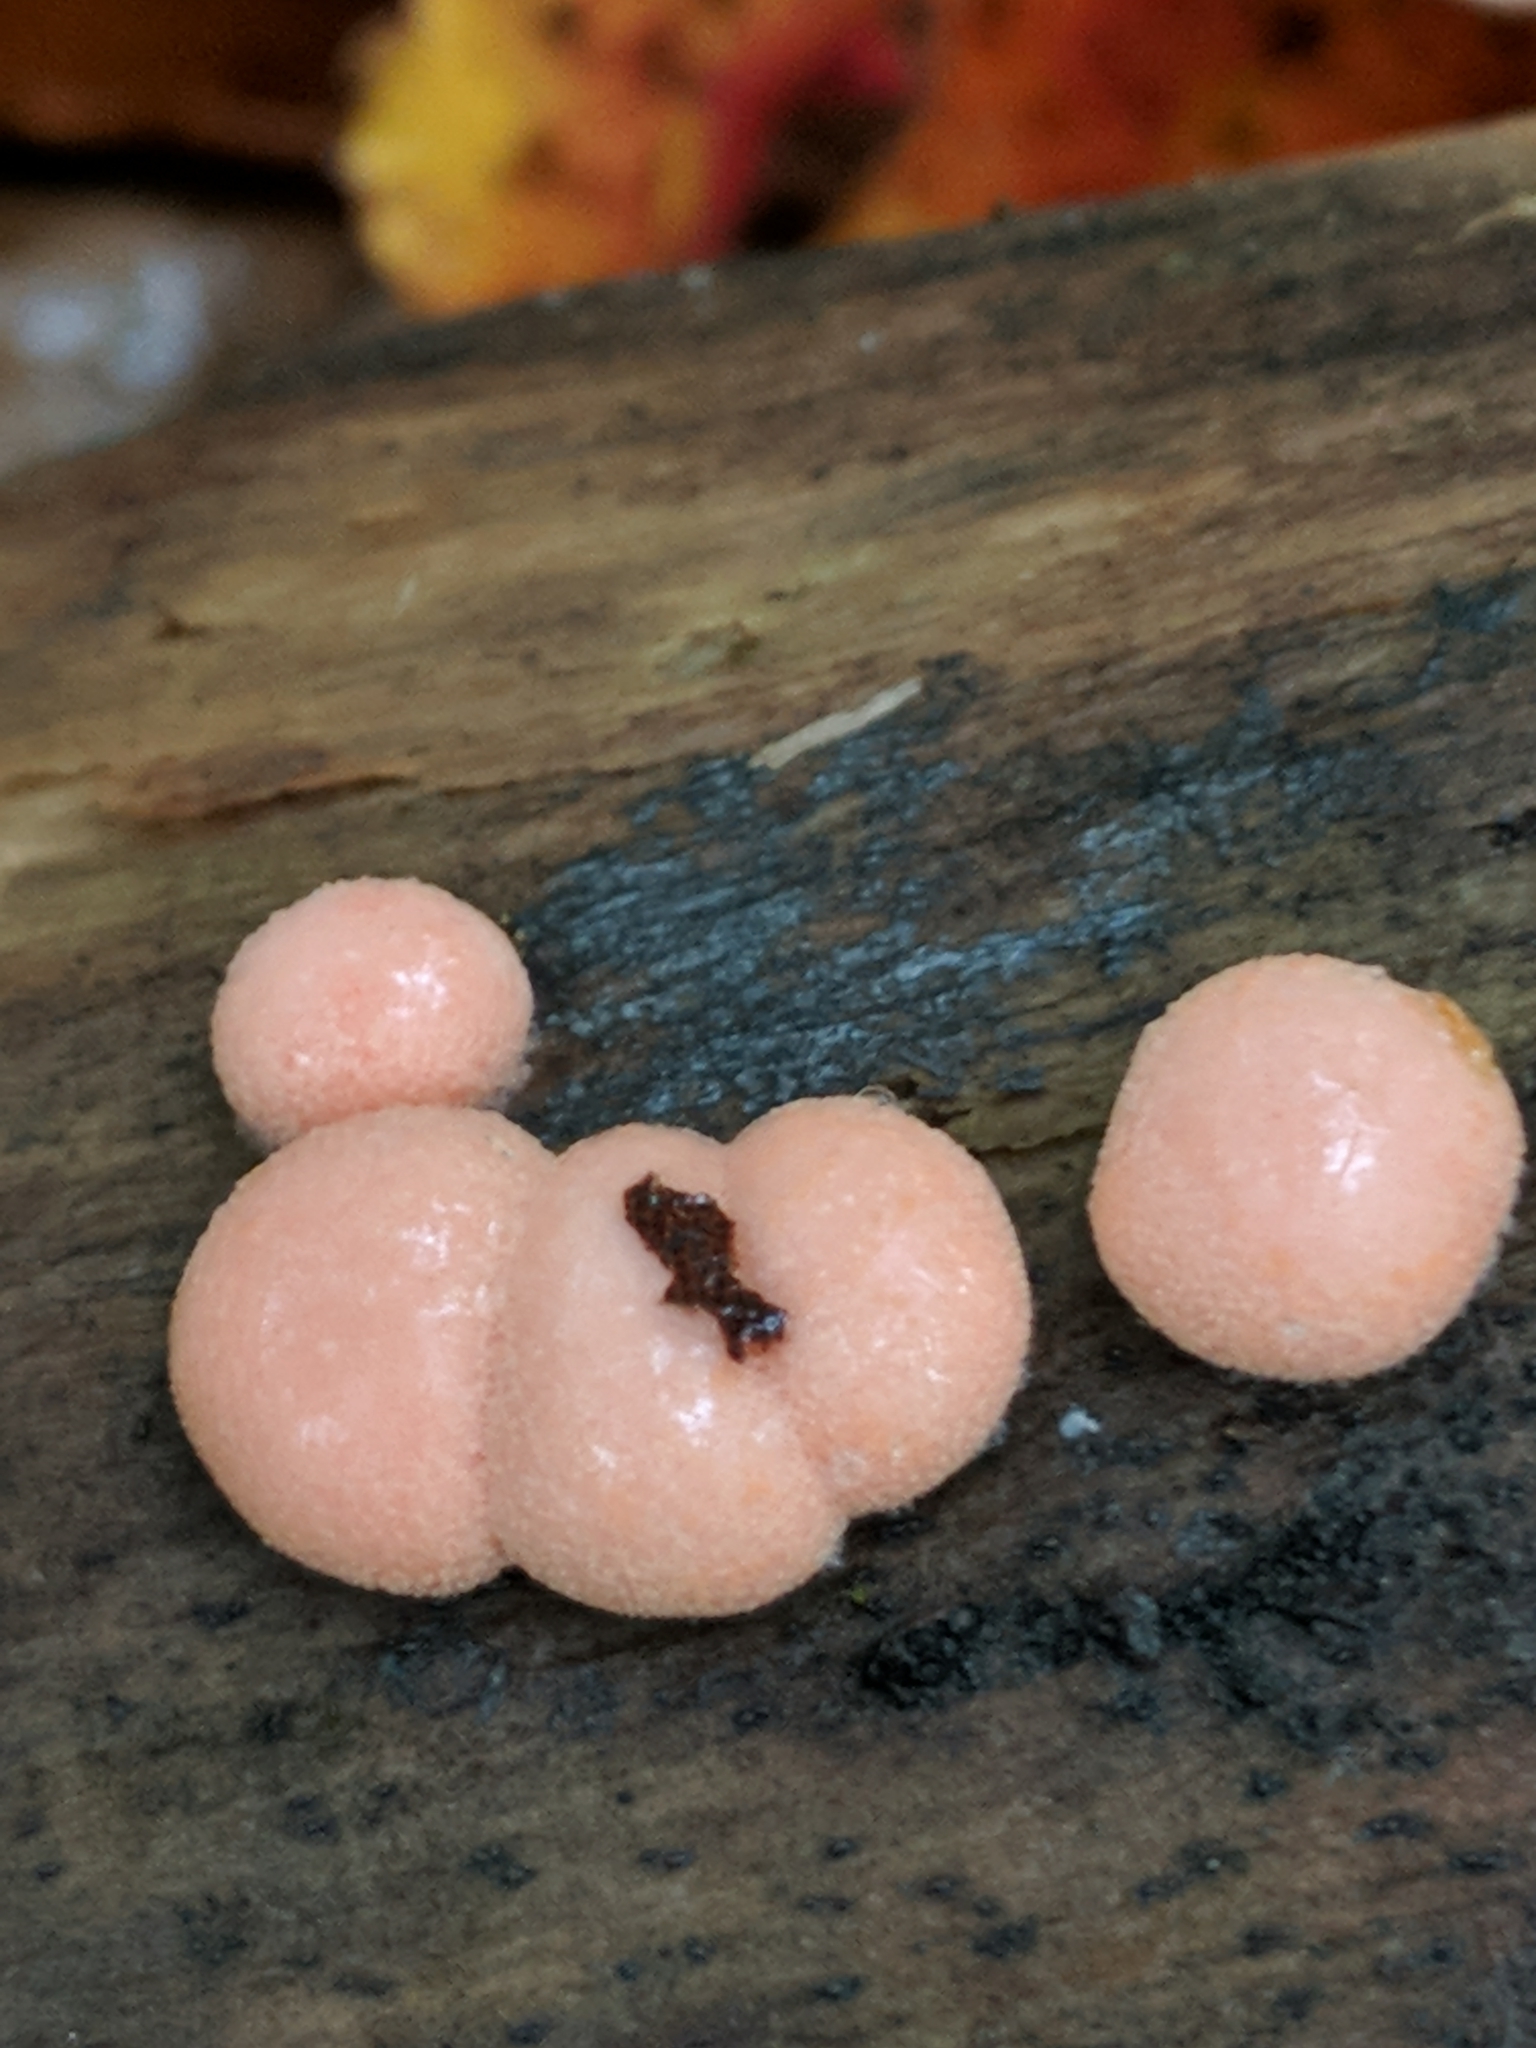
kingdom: Protozoa
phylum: Mycetozoa
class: Myxomycetes
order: Cribrariales
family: Tubiferaceae
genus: Lycogala
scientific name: Lycogala epidendrum
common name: Wolf's milk
